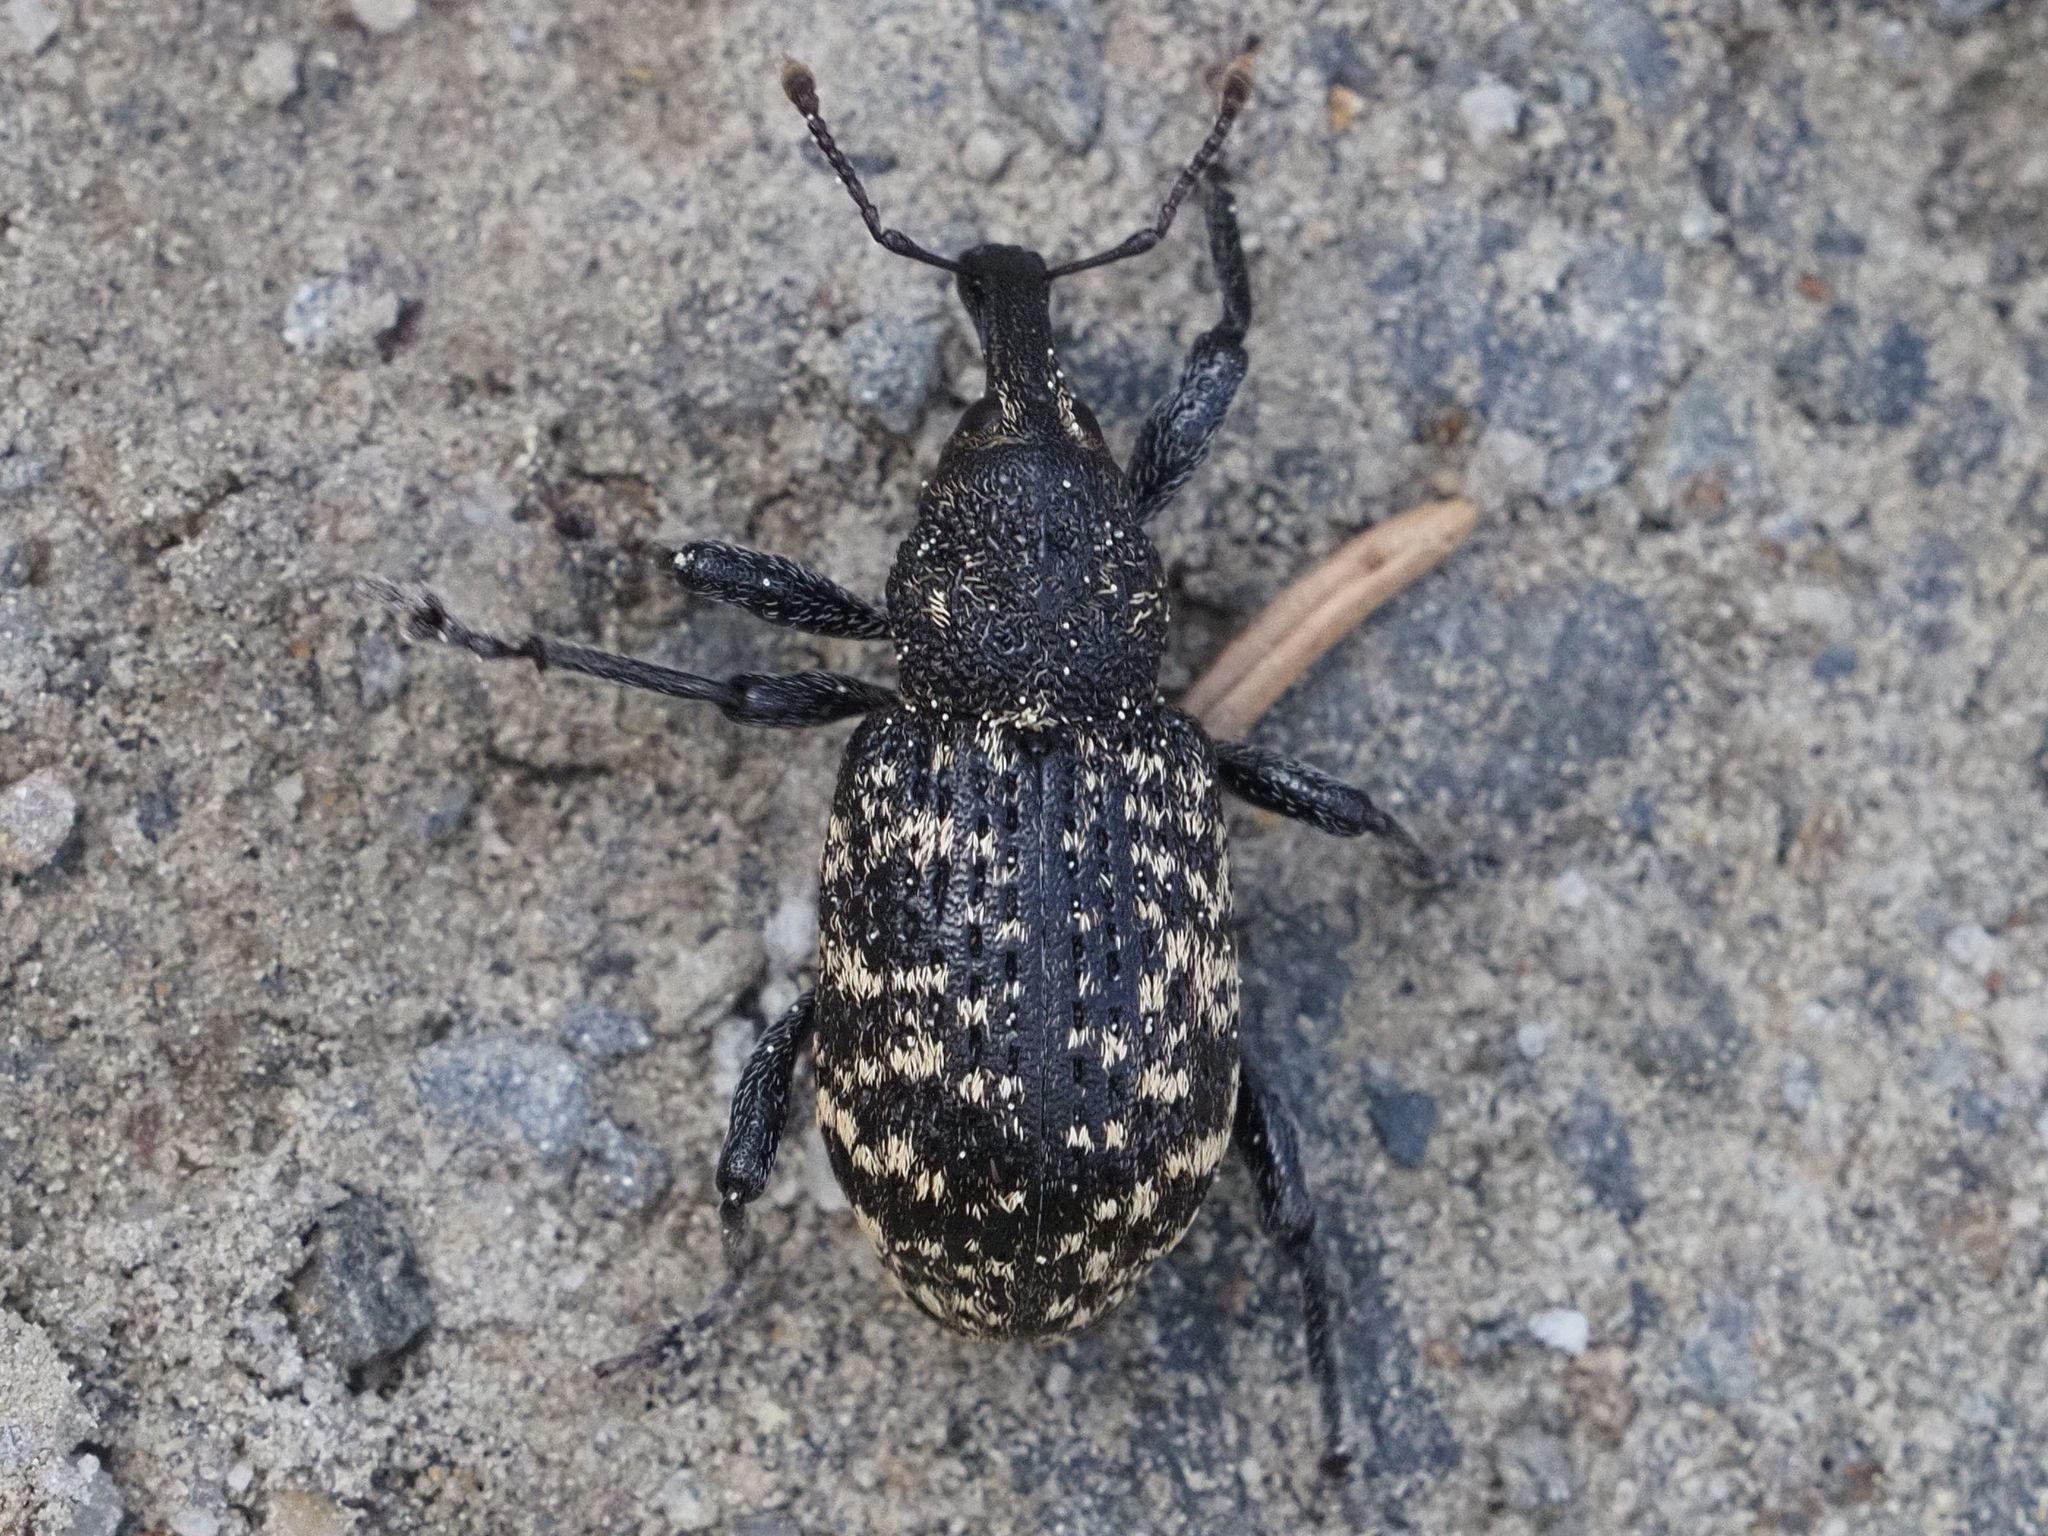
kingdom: Animalia
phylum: Arthropoda
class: Insecta
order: Coleoptera
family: Curculionidae
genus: Hylobius
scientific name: Hylobius excavatus
